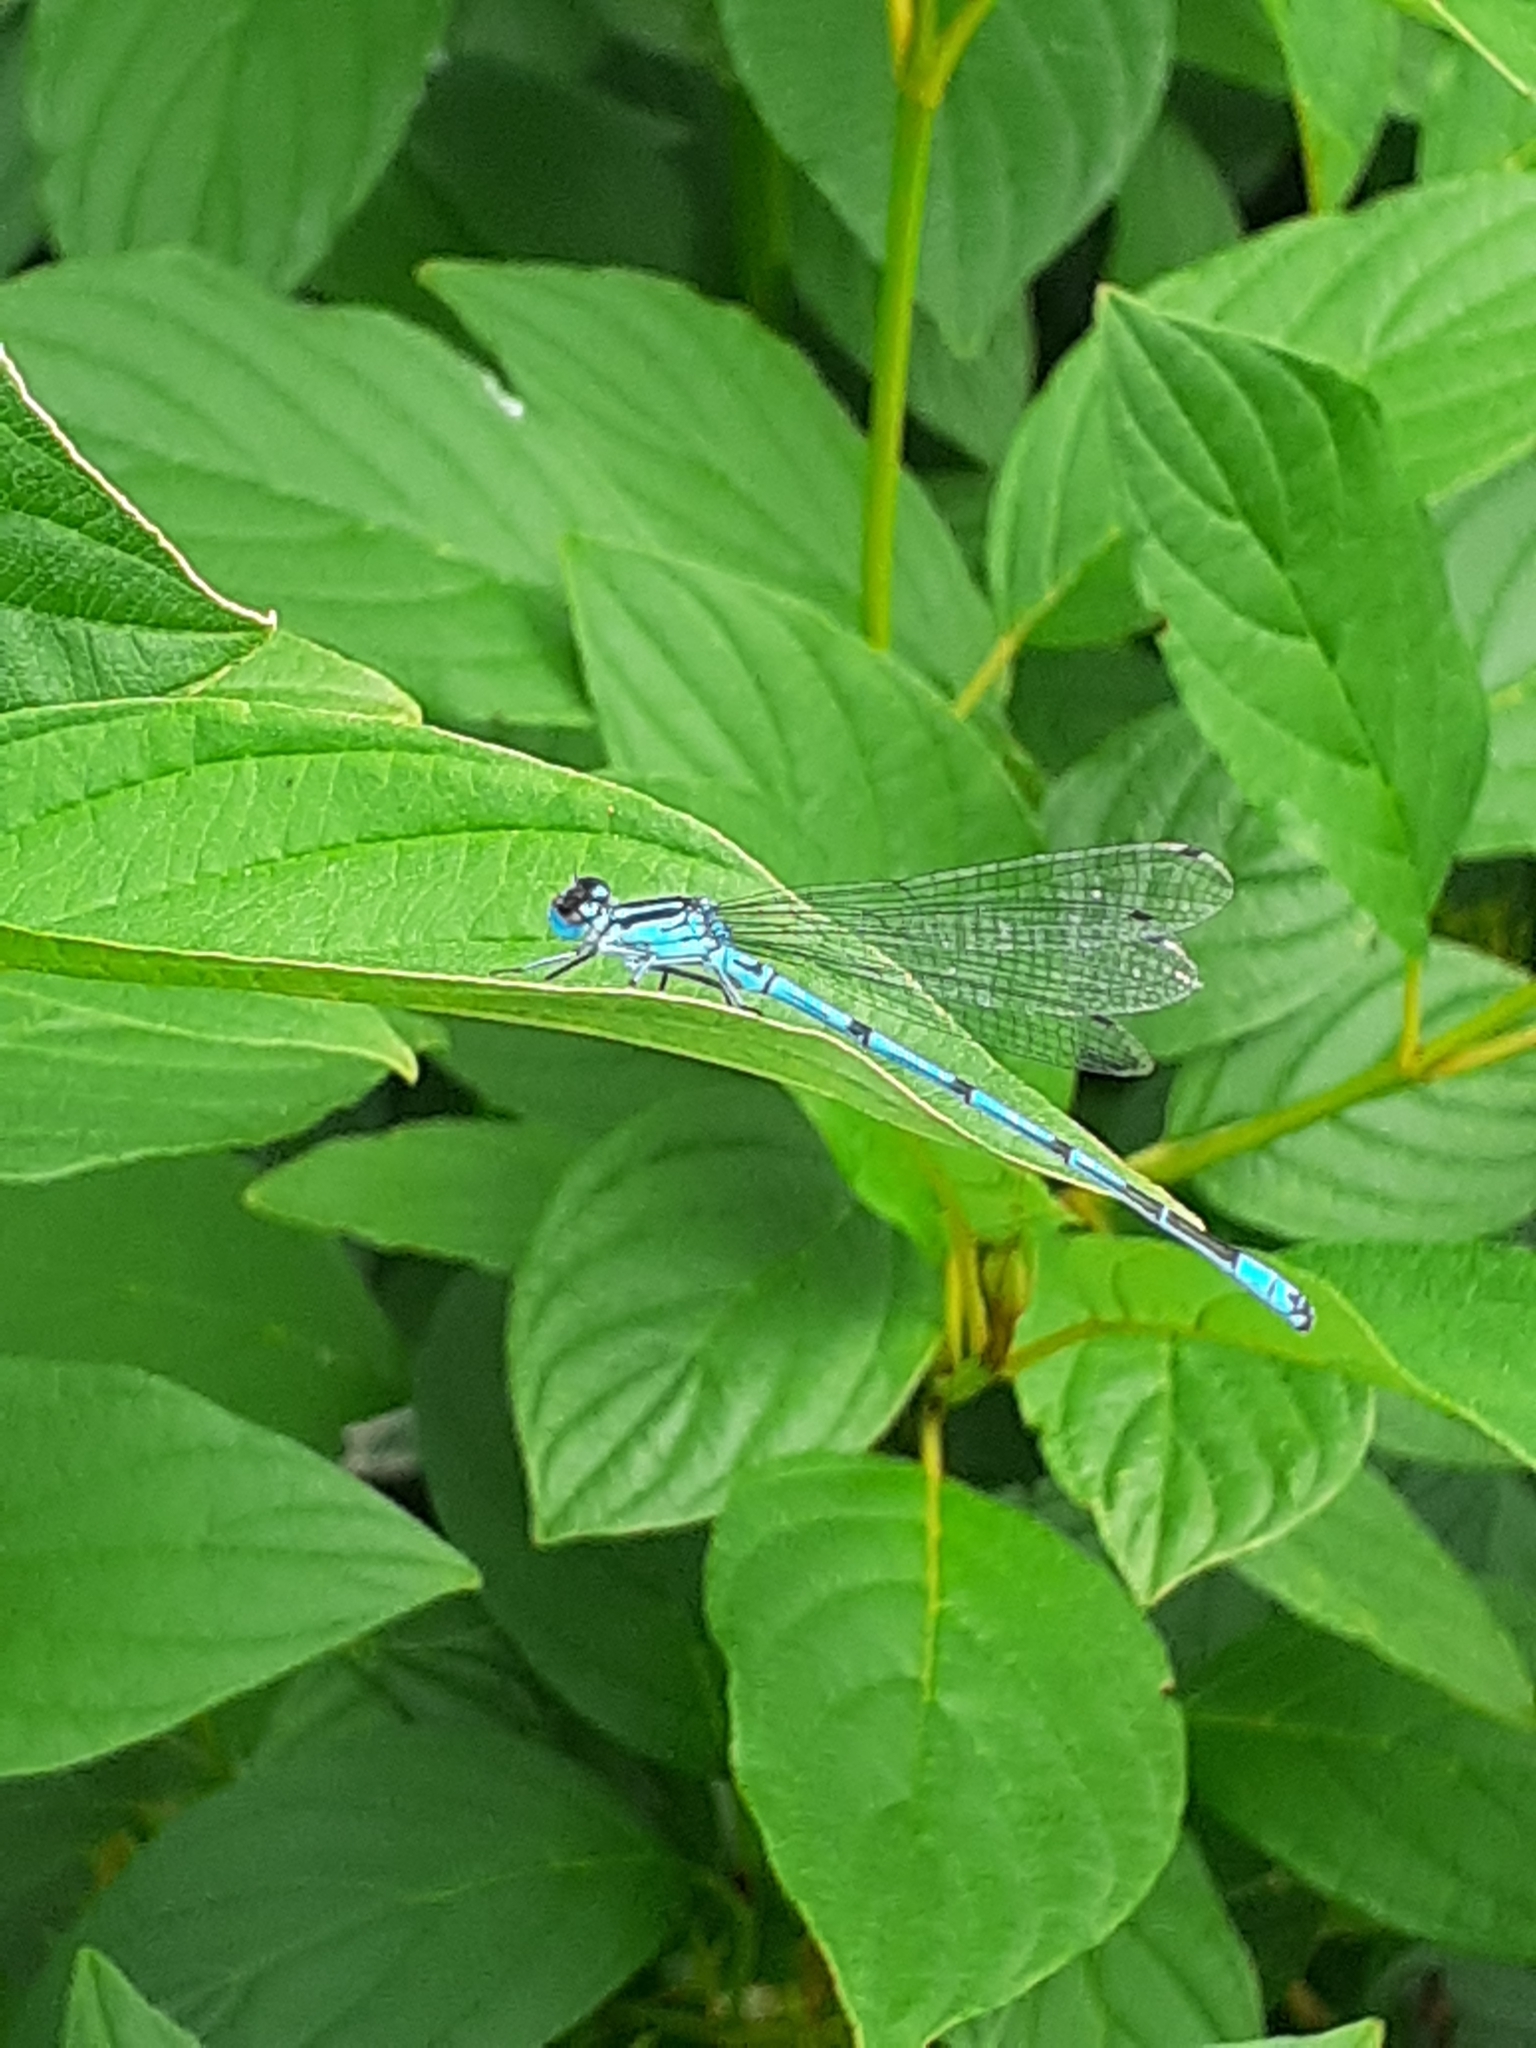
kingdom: Animalia
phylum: Arthropoda
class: Insecta
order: Odonata
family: Coenagrionidae
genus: Coenagrion
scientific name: Coenagrion puella
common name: Azure damselfly
